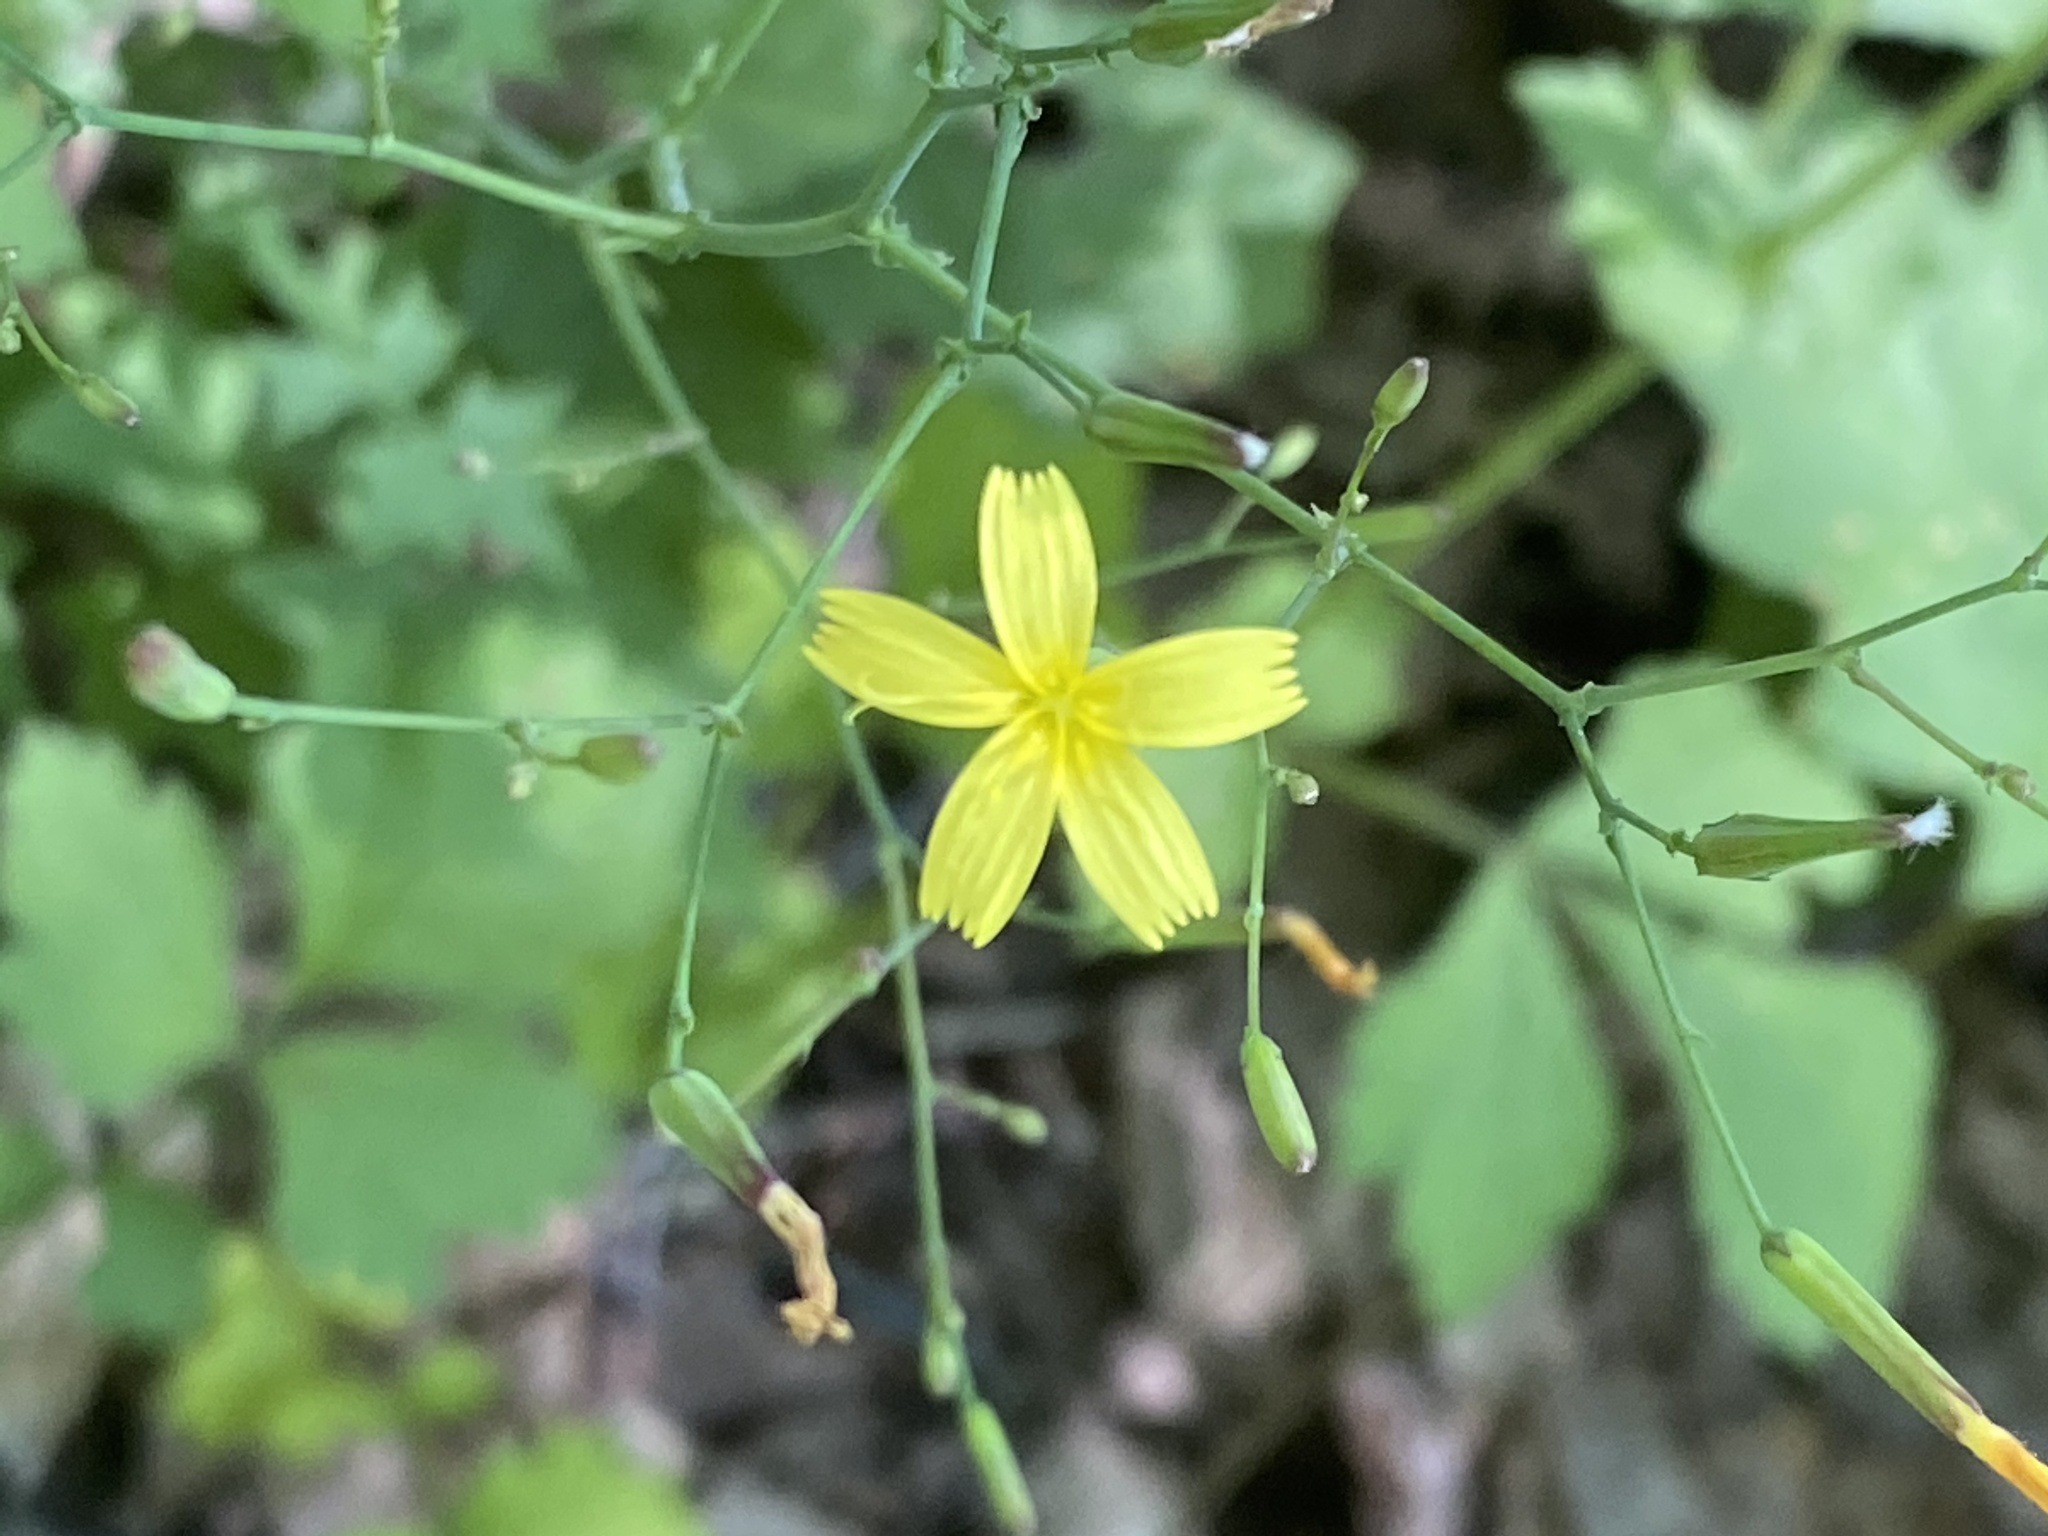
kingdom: Plantae
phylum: Tracheophyta
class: Magnoliopsida
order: Asterales
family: Asteraceae
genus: Mycelis
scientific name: Mycelis muralis
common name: Wall lettuce
